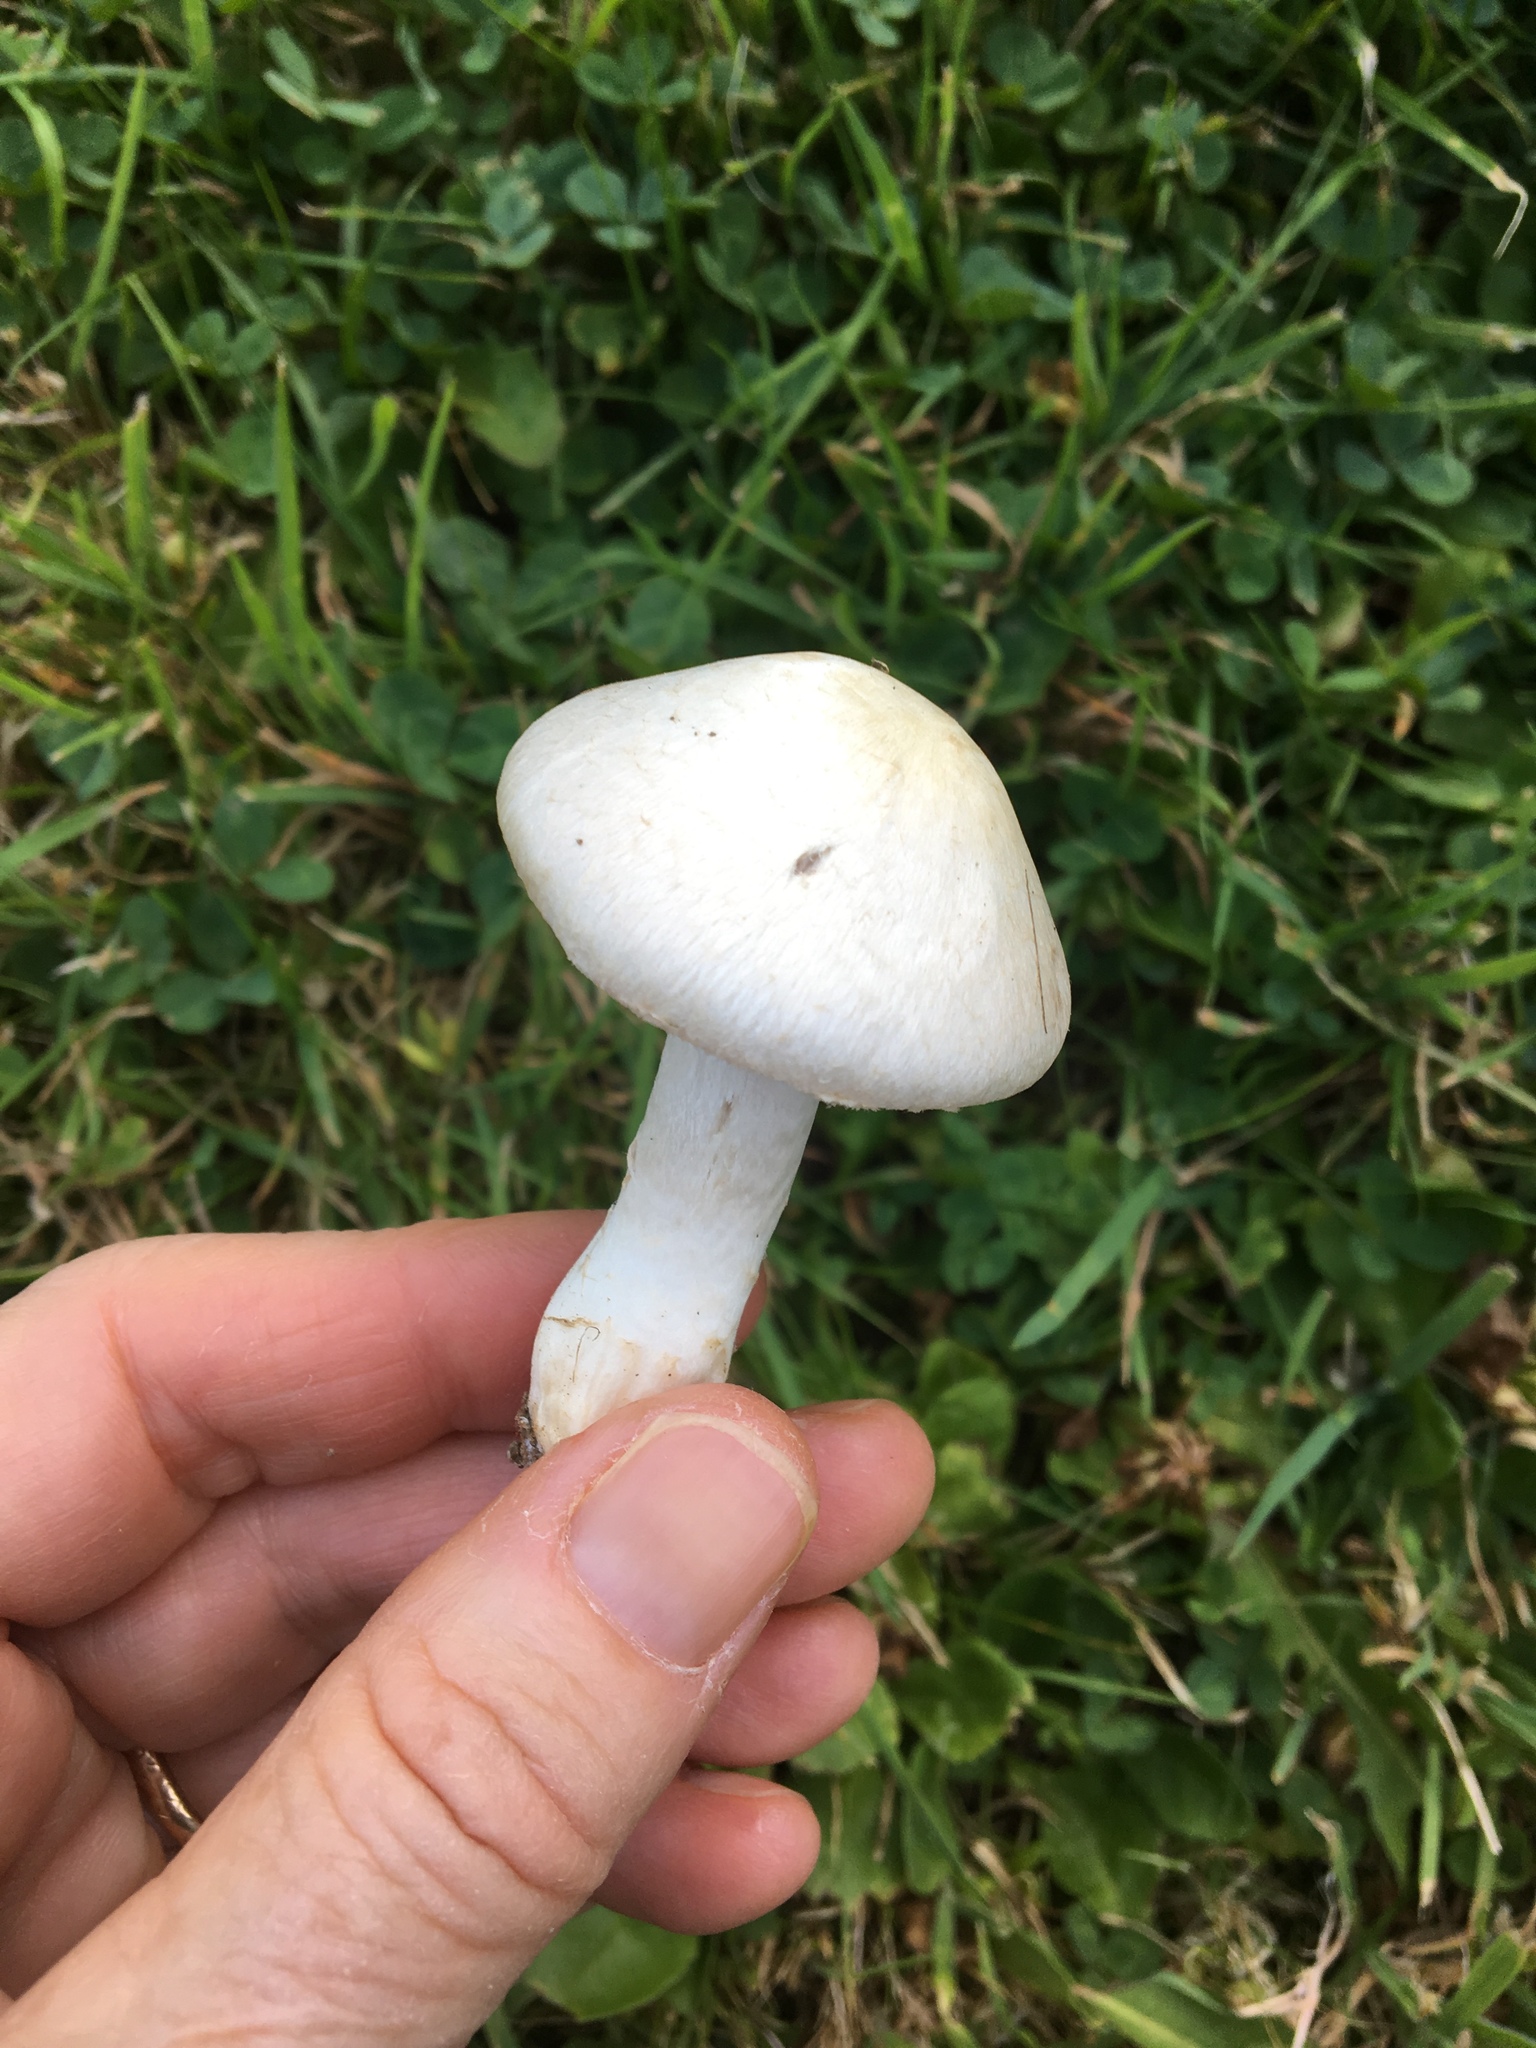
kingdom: Fungi
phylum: Basidiomycota
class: Agaricomycetes
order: Agaricales
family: Agaricaceae
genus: Agaricus
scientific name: Agaricus campestris
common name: Field mushroom
